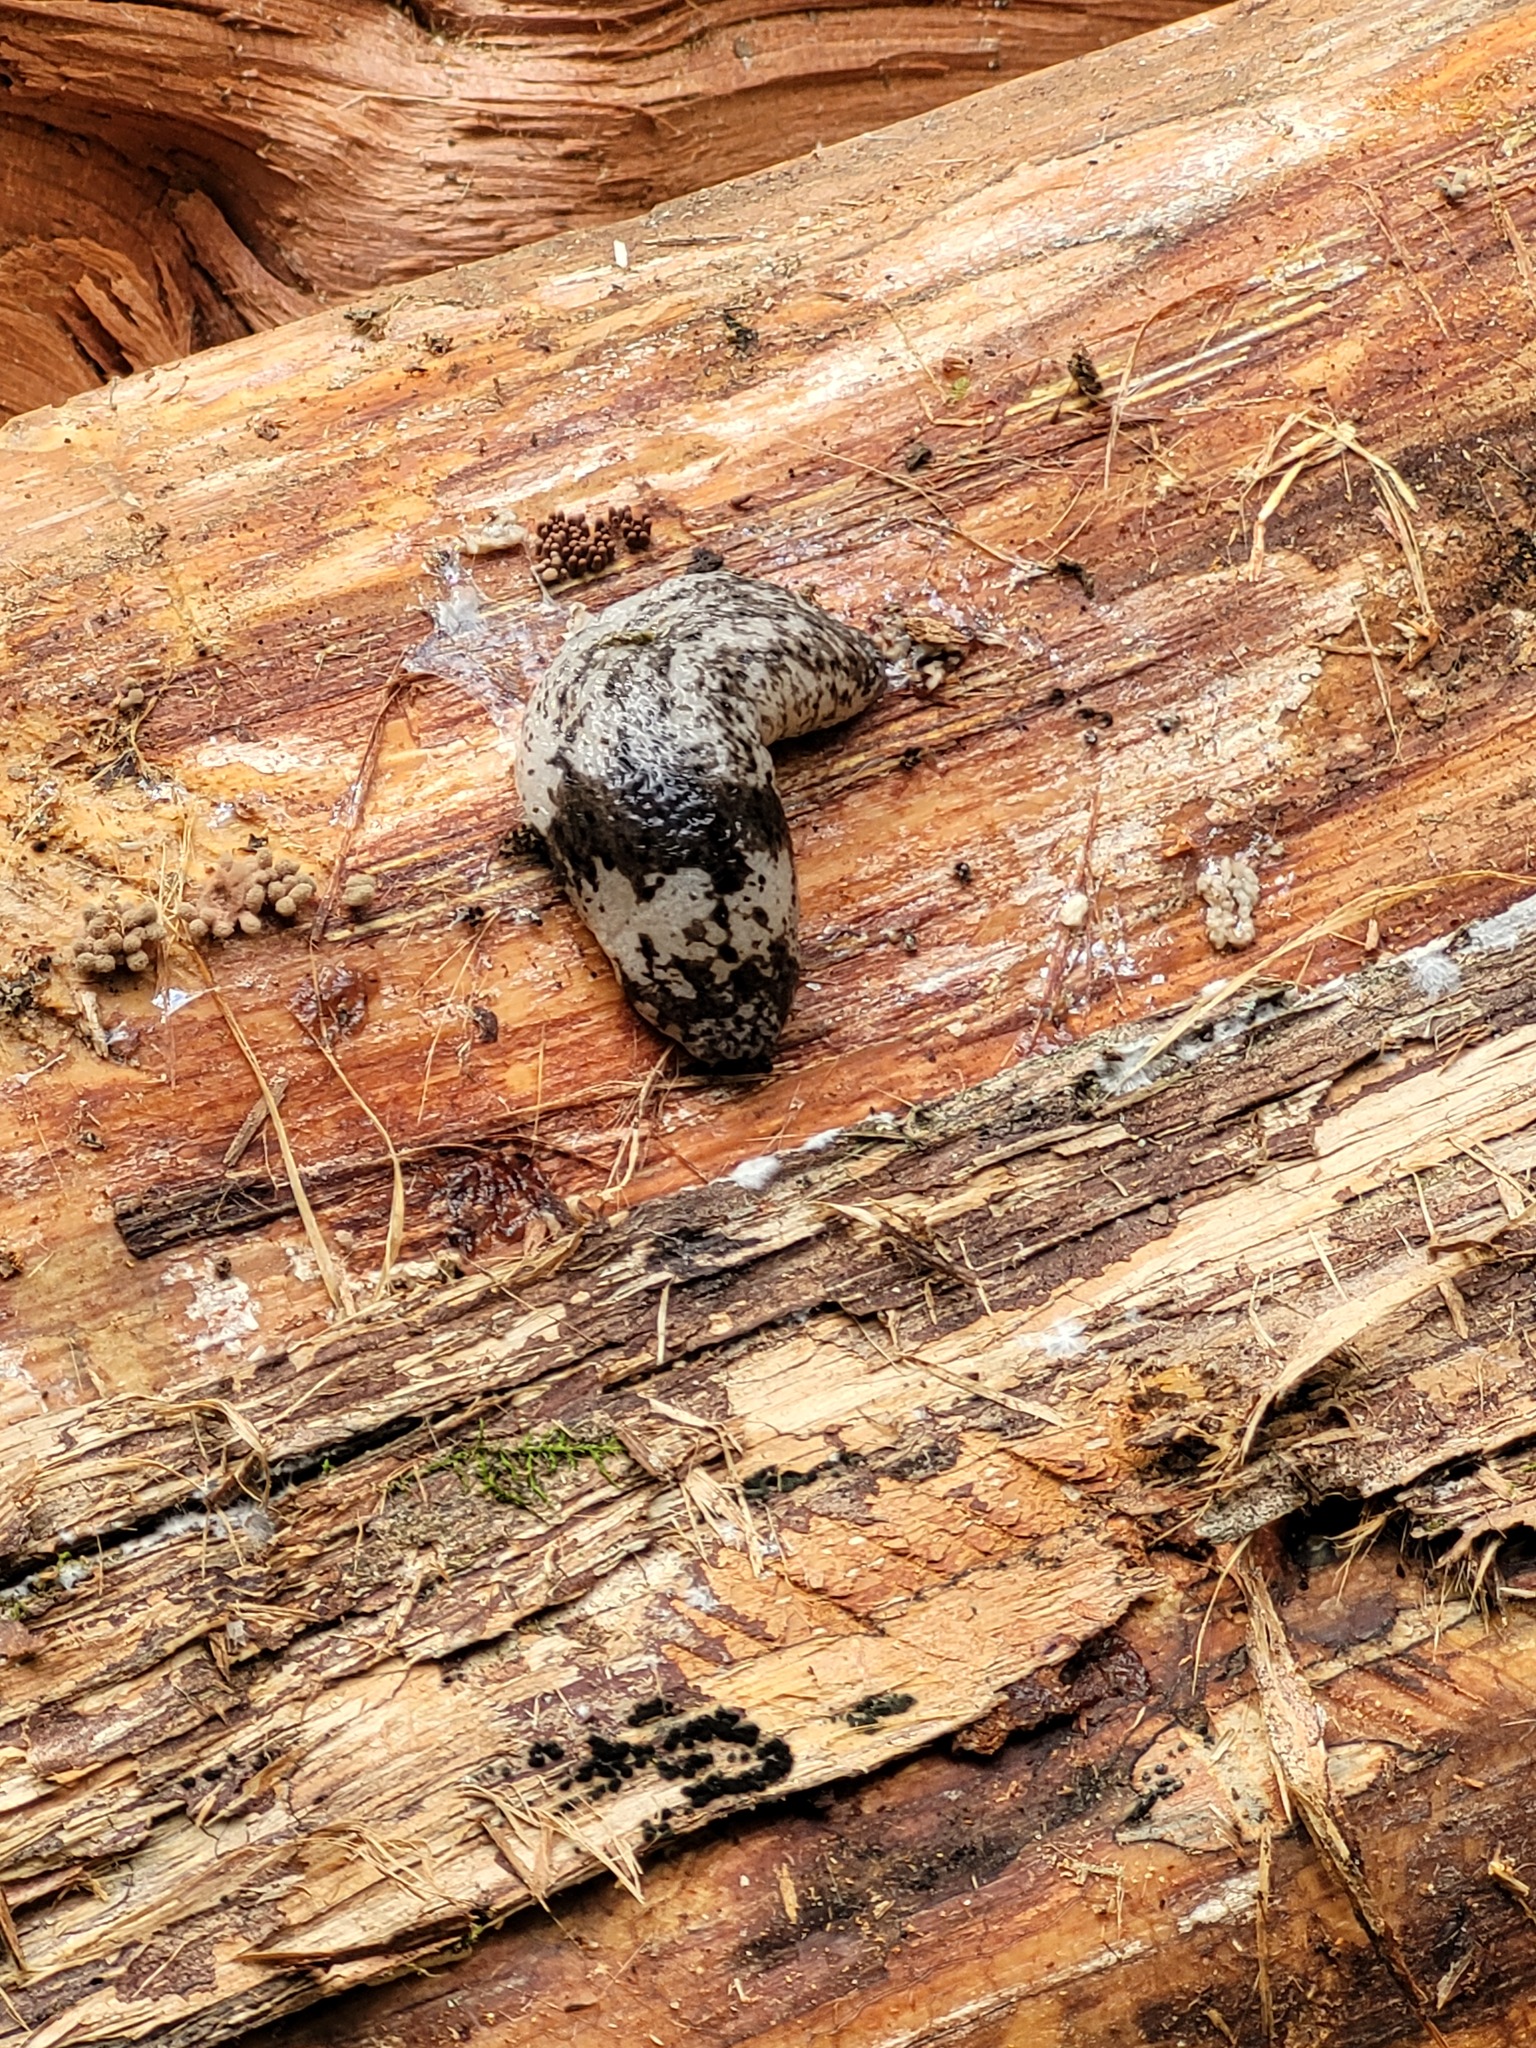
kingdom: Animalia
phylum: Mollusca
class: Gastropoda
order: Stylommatophora
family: Philomycidae
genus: Philomycus
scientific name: Philomycus sellatus
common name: Alabama mantleslug
